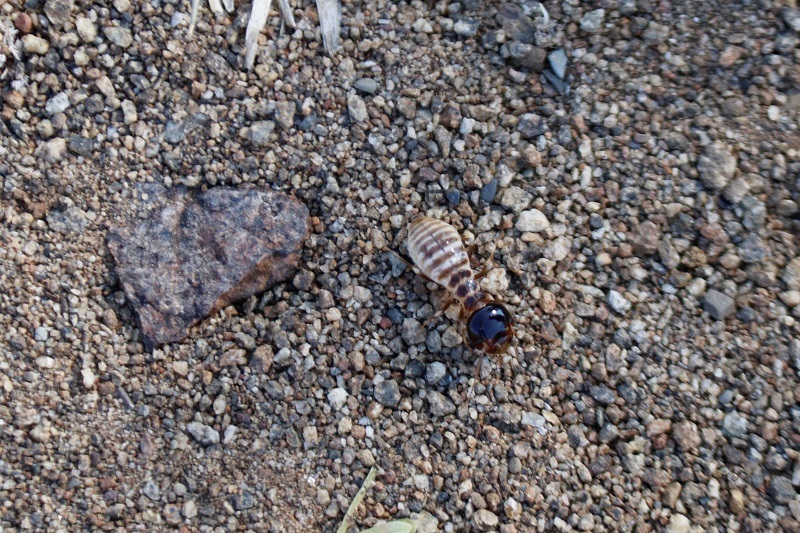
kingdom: Animalia
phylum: Arthropoda
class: Insecta
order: Blattodea
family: Hodotermitidae
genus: Hodotermes
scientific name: Hodotermes mossambicus
